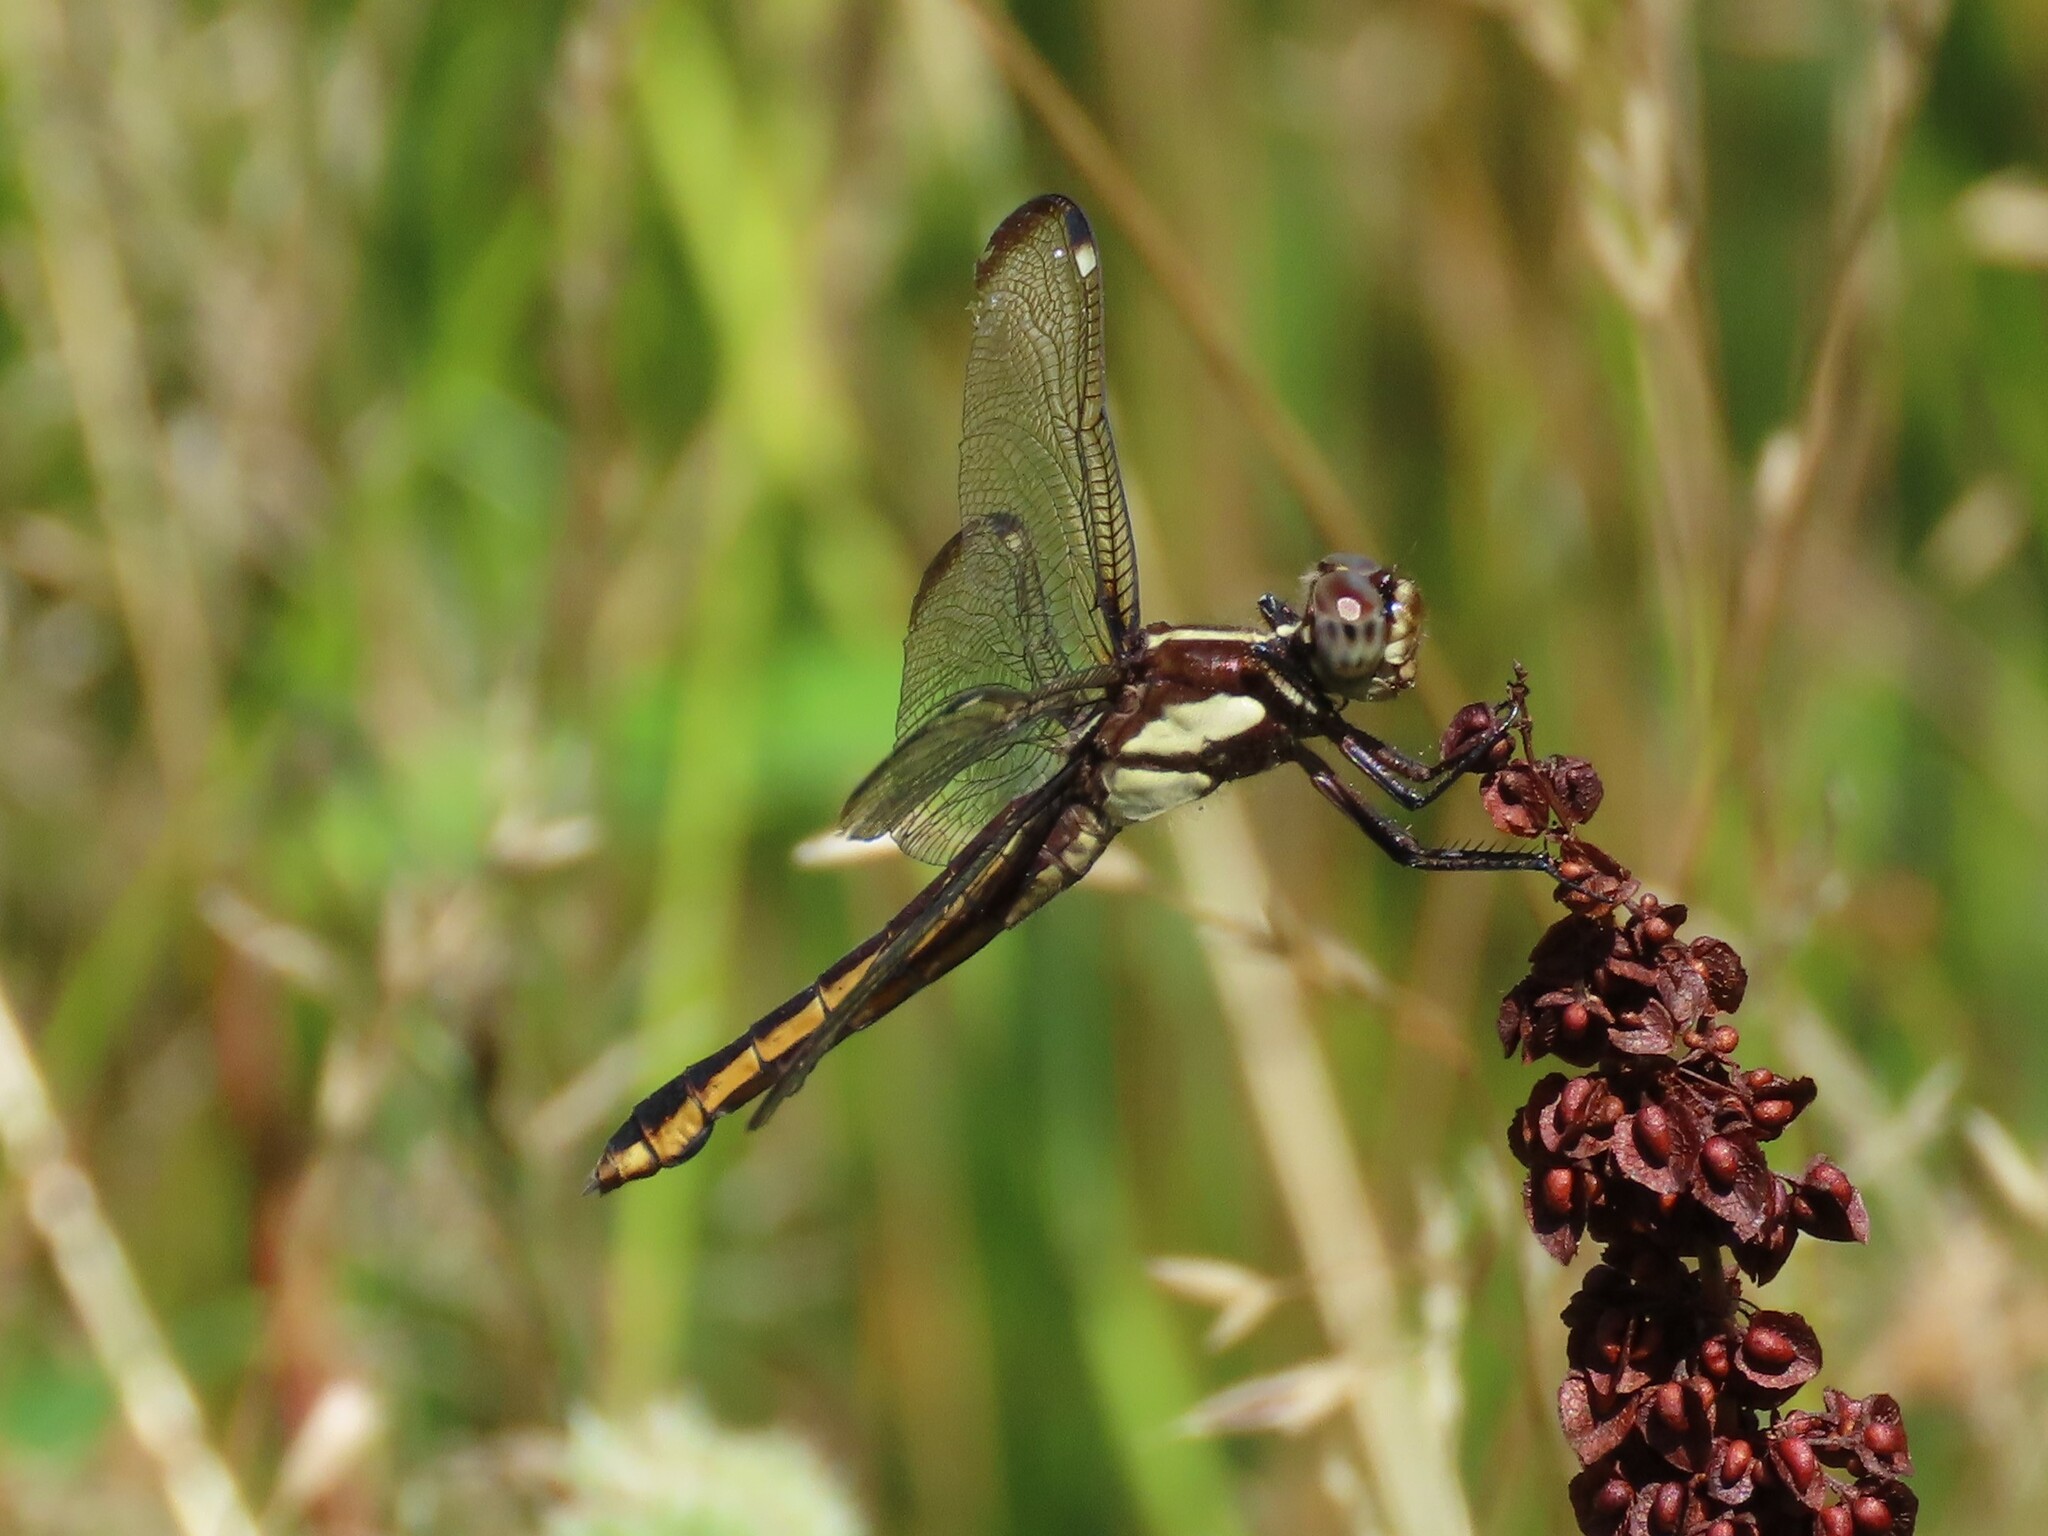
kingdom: Animalia
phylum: Arthropoda
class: Insecta
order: Odonata
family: Libellulidae
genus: Libellula
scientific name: Libellula cyanea
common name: Spangled skimmer
